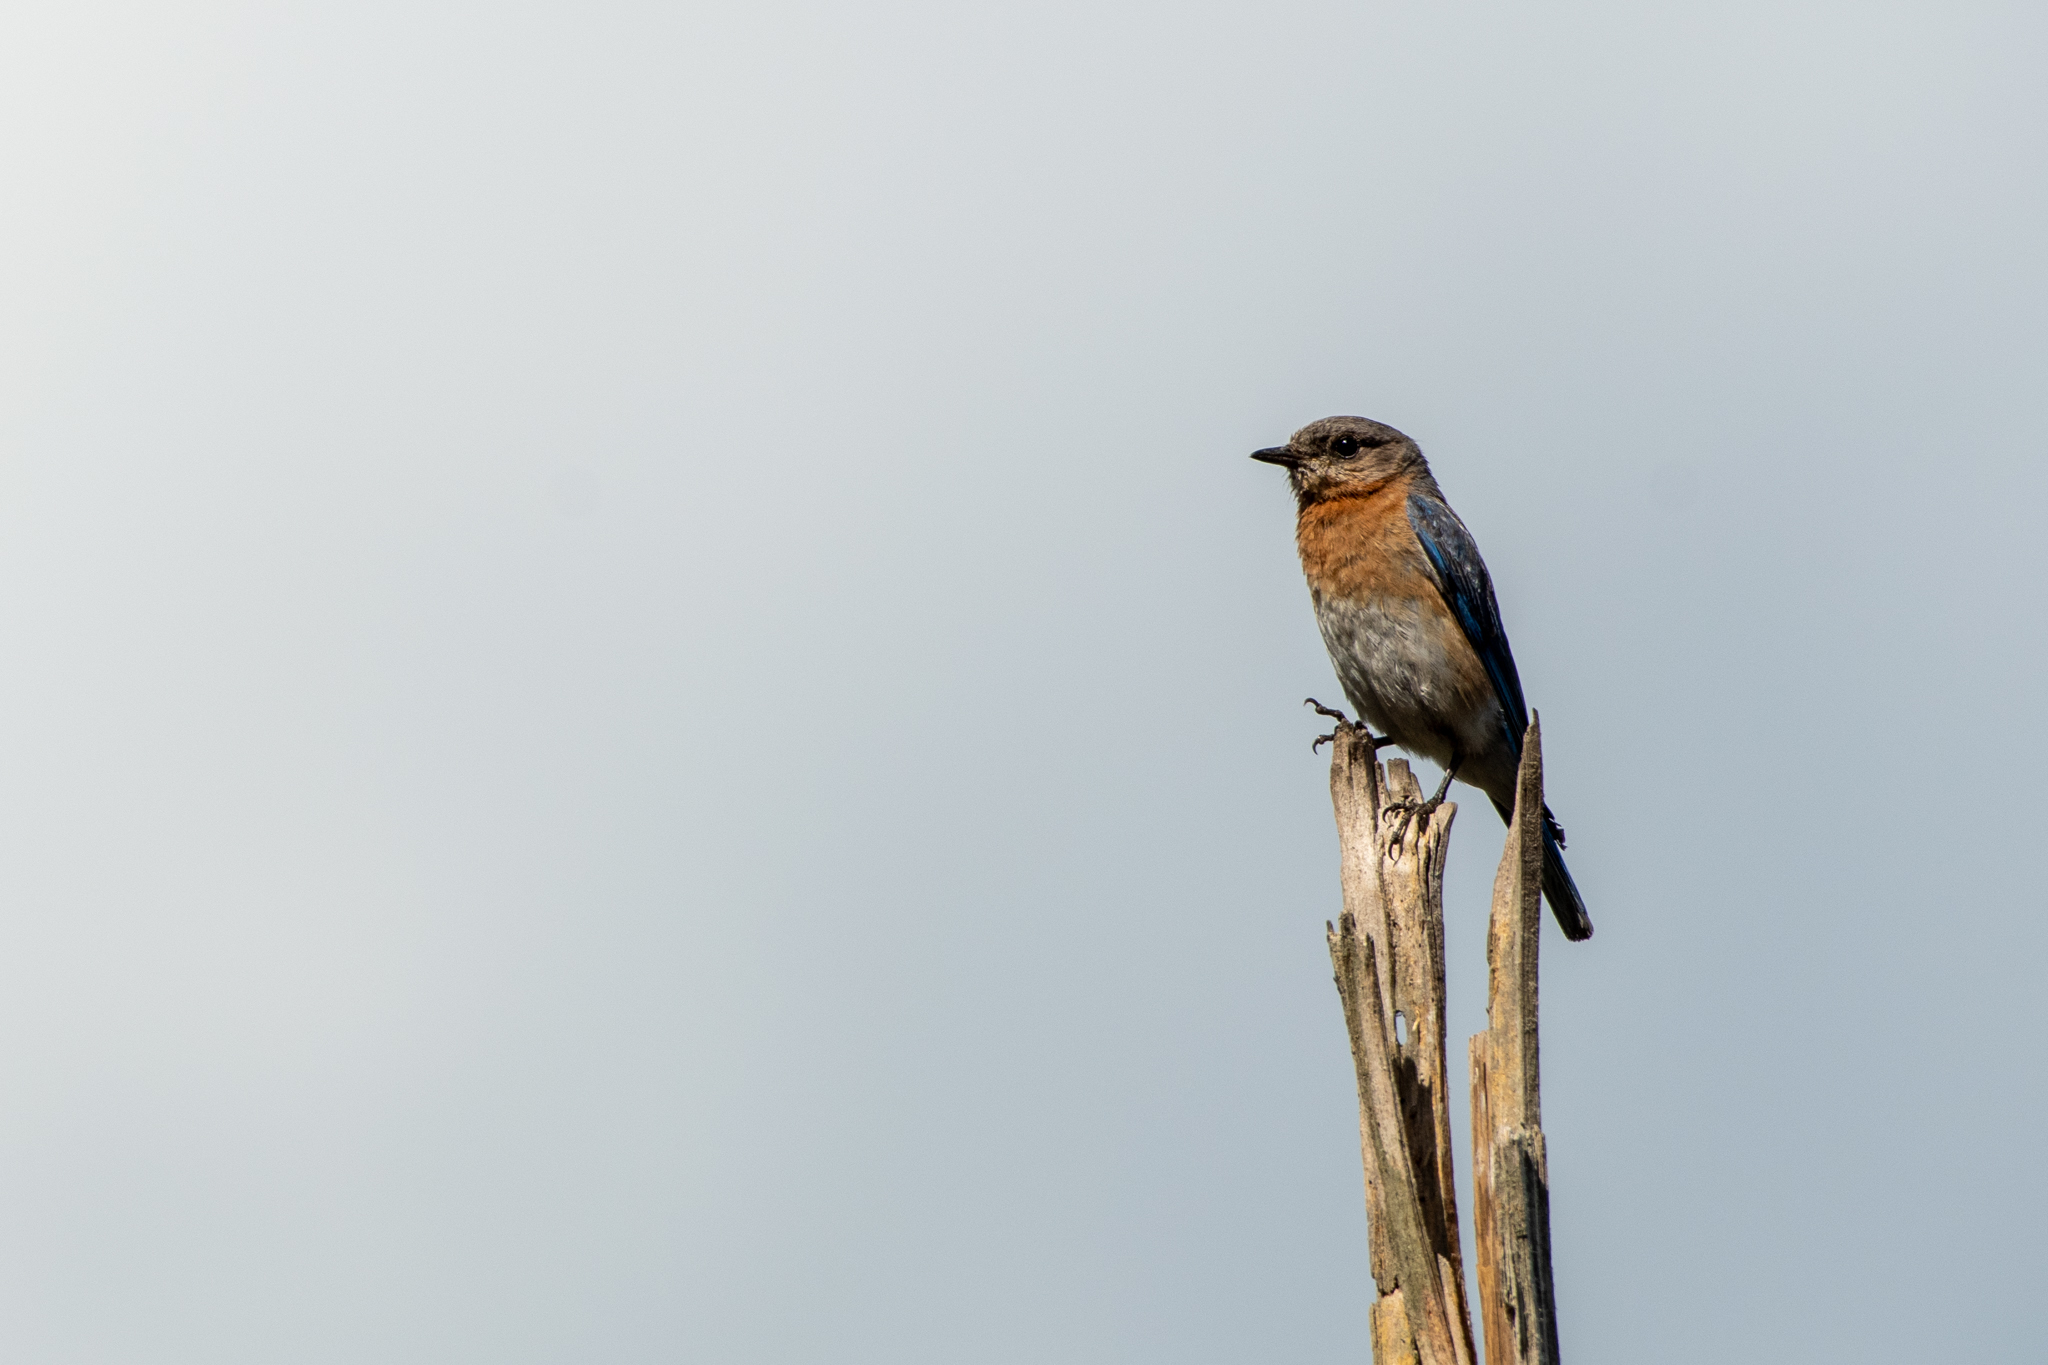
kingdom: Animalia
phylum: Chordata
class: Aves
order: Passeriformes
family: Turdidae
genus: Sialia
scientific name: Sialia sialis
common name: Eastern bluebird
